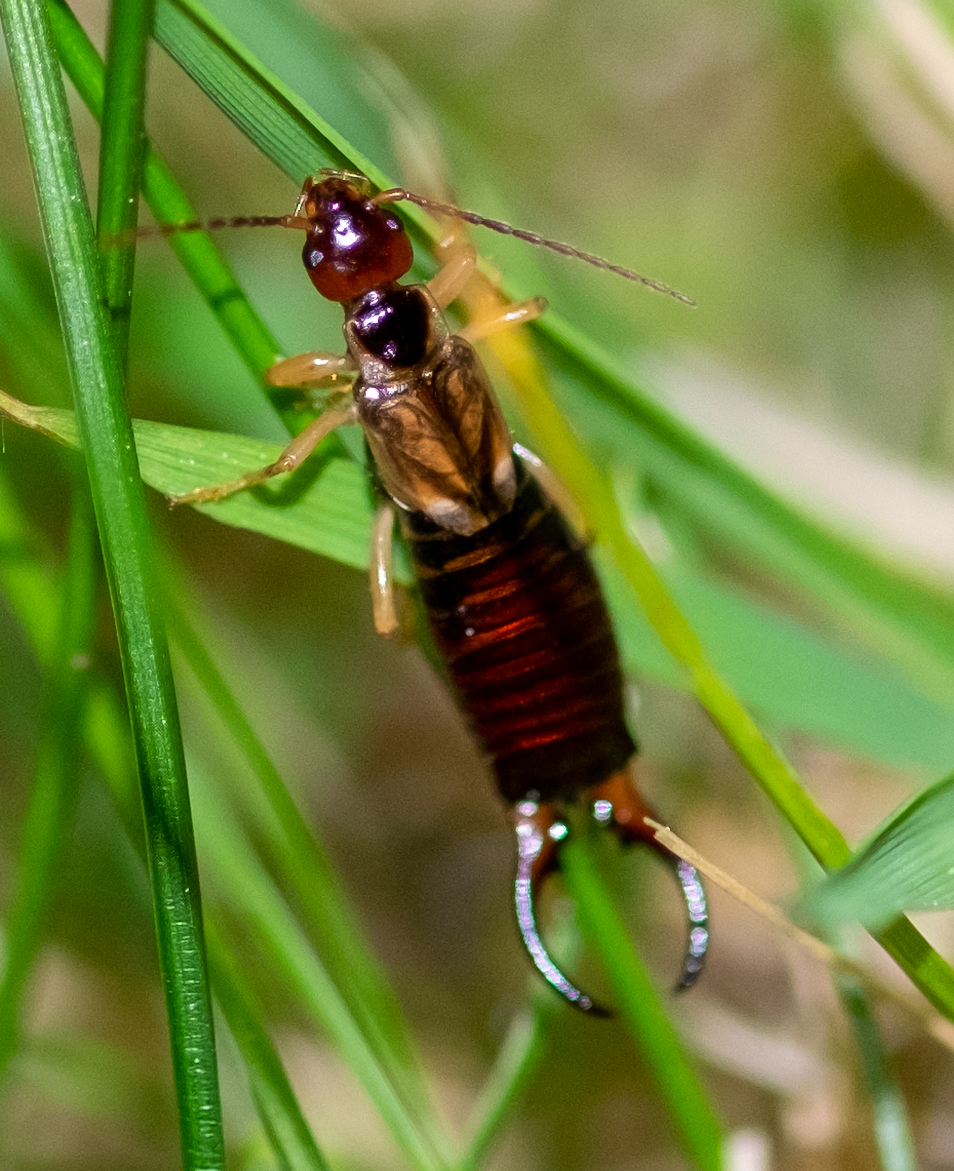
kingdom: Animalia
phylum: Arthropoda
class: Insecta
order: Dermaptera
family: Forficulidae
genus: Forficula
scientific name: Forficula
